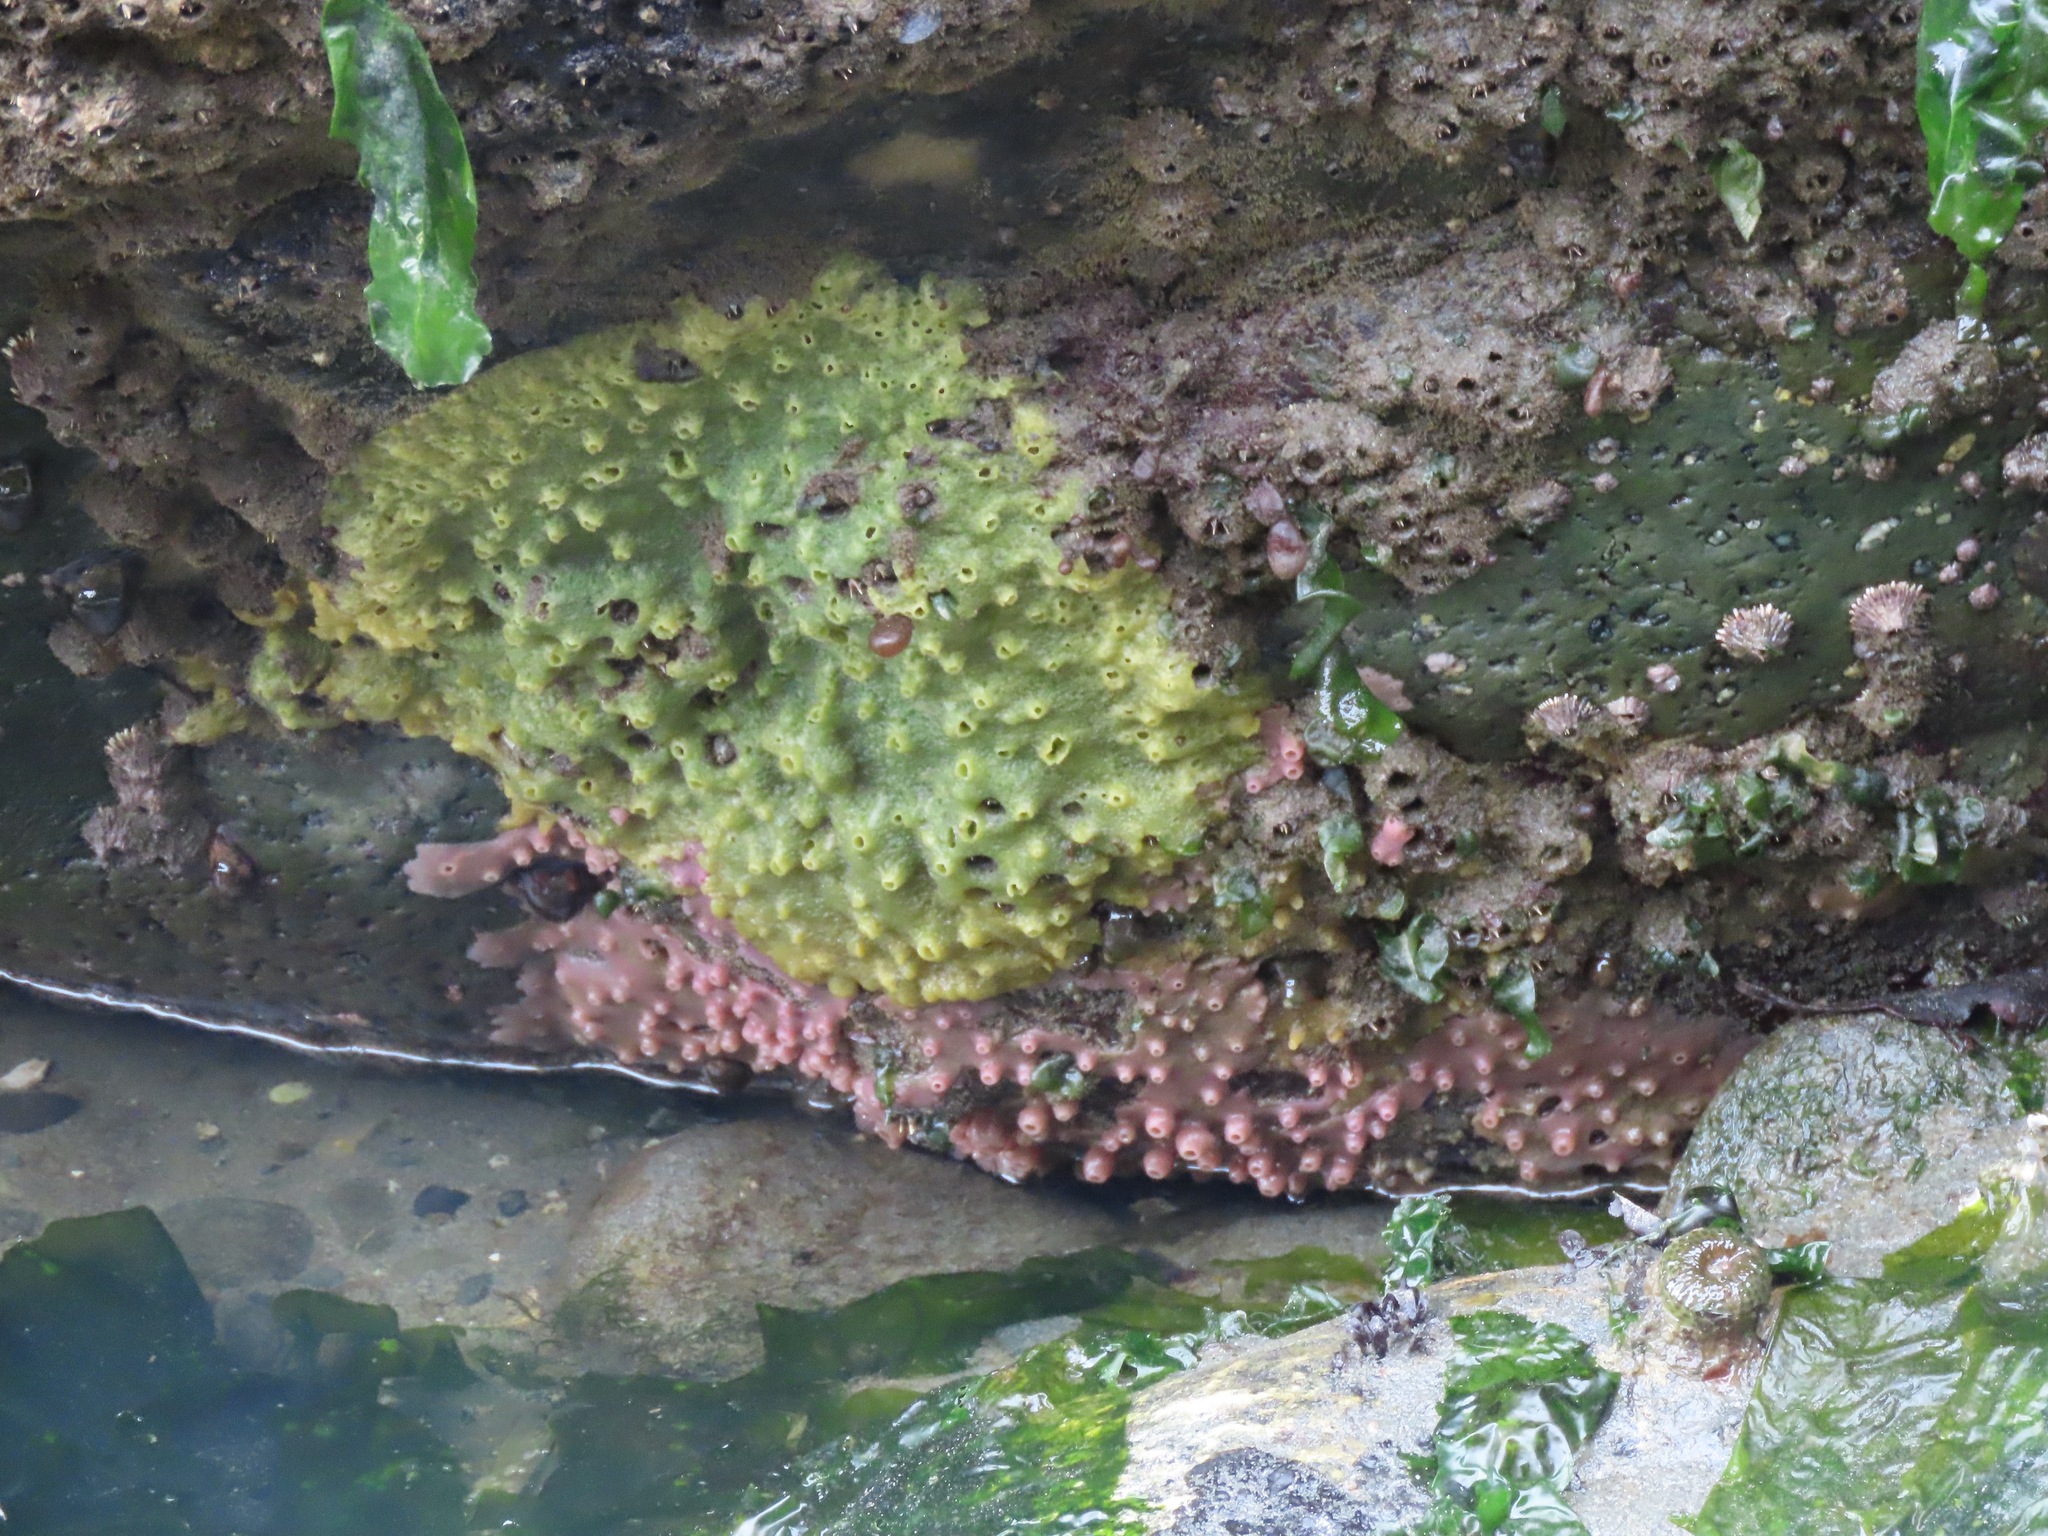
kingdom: Animalia
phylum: Porifera
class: Demospongiae
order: Suberitida
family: Halichondriidae
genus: Halichondria
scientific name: Halichondria panicea
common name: Breadcrumb sponge
